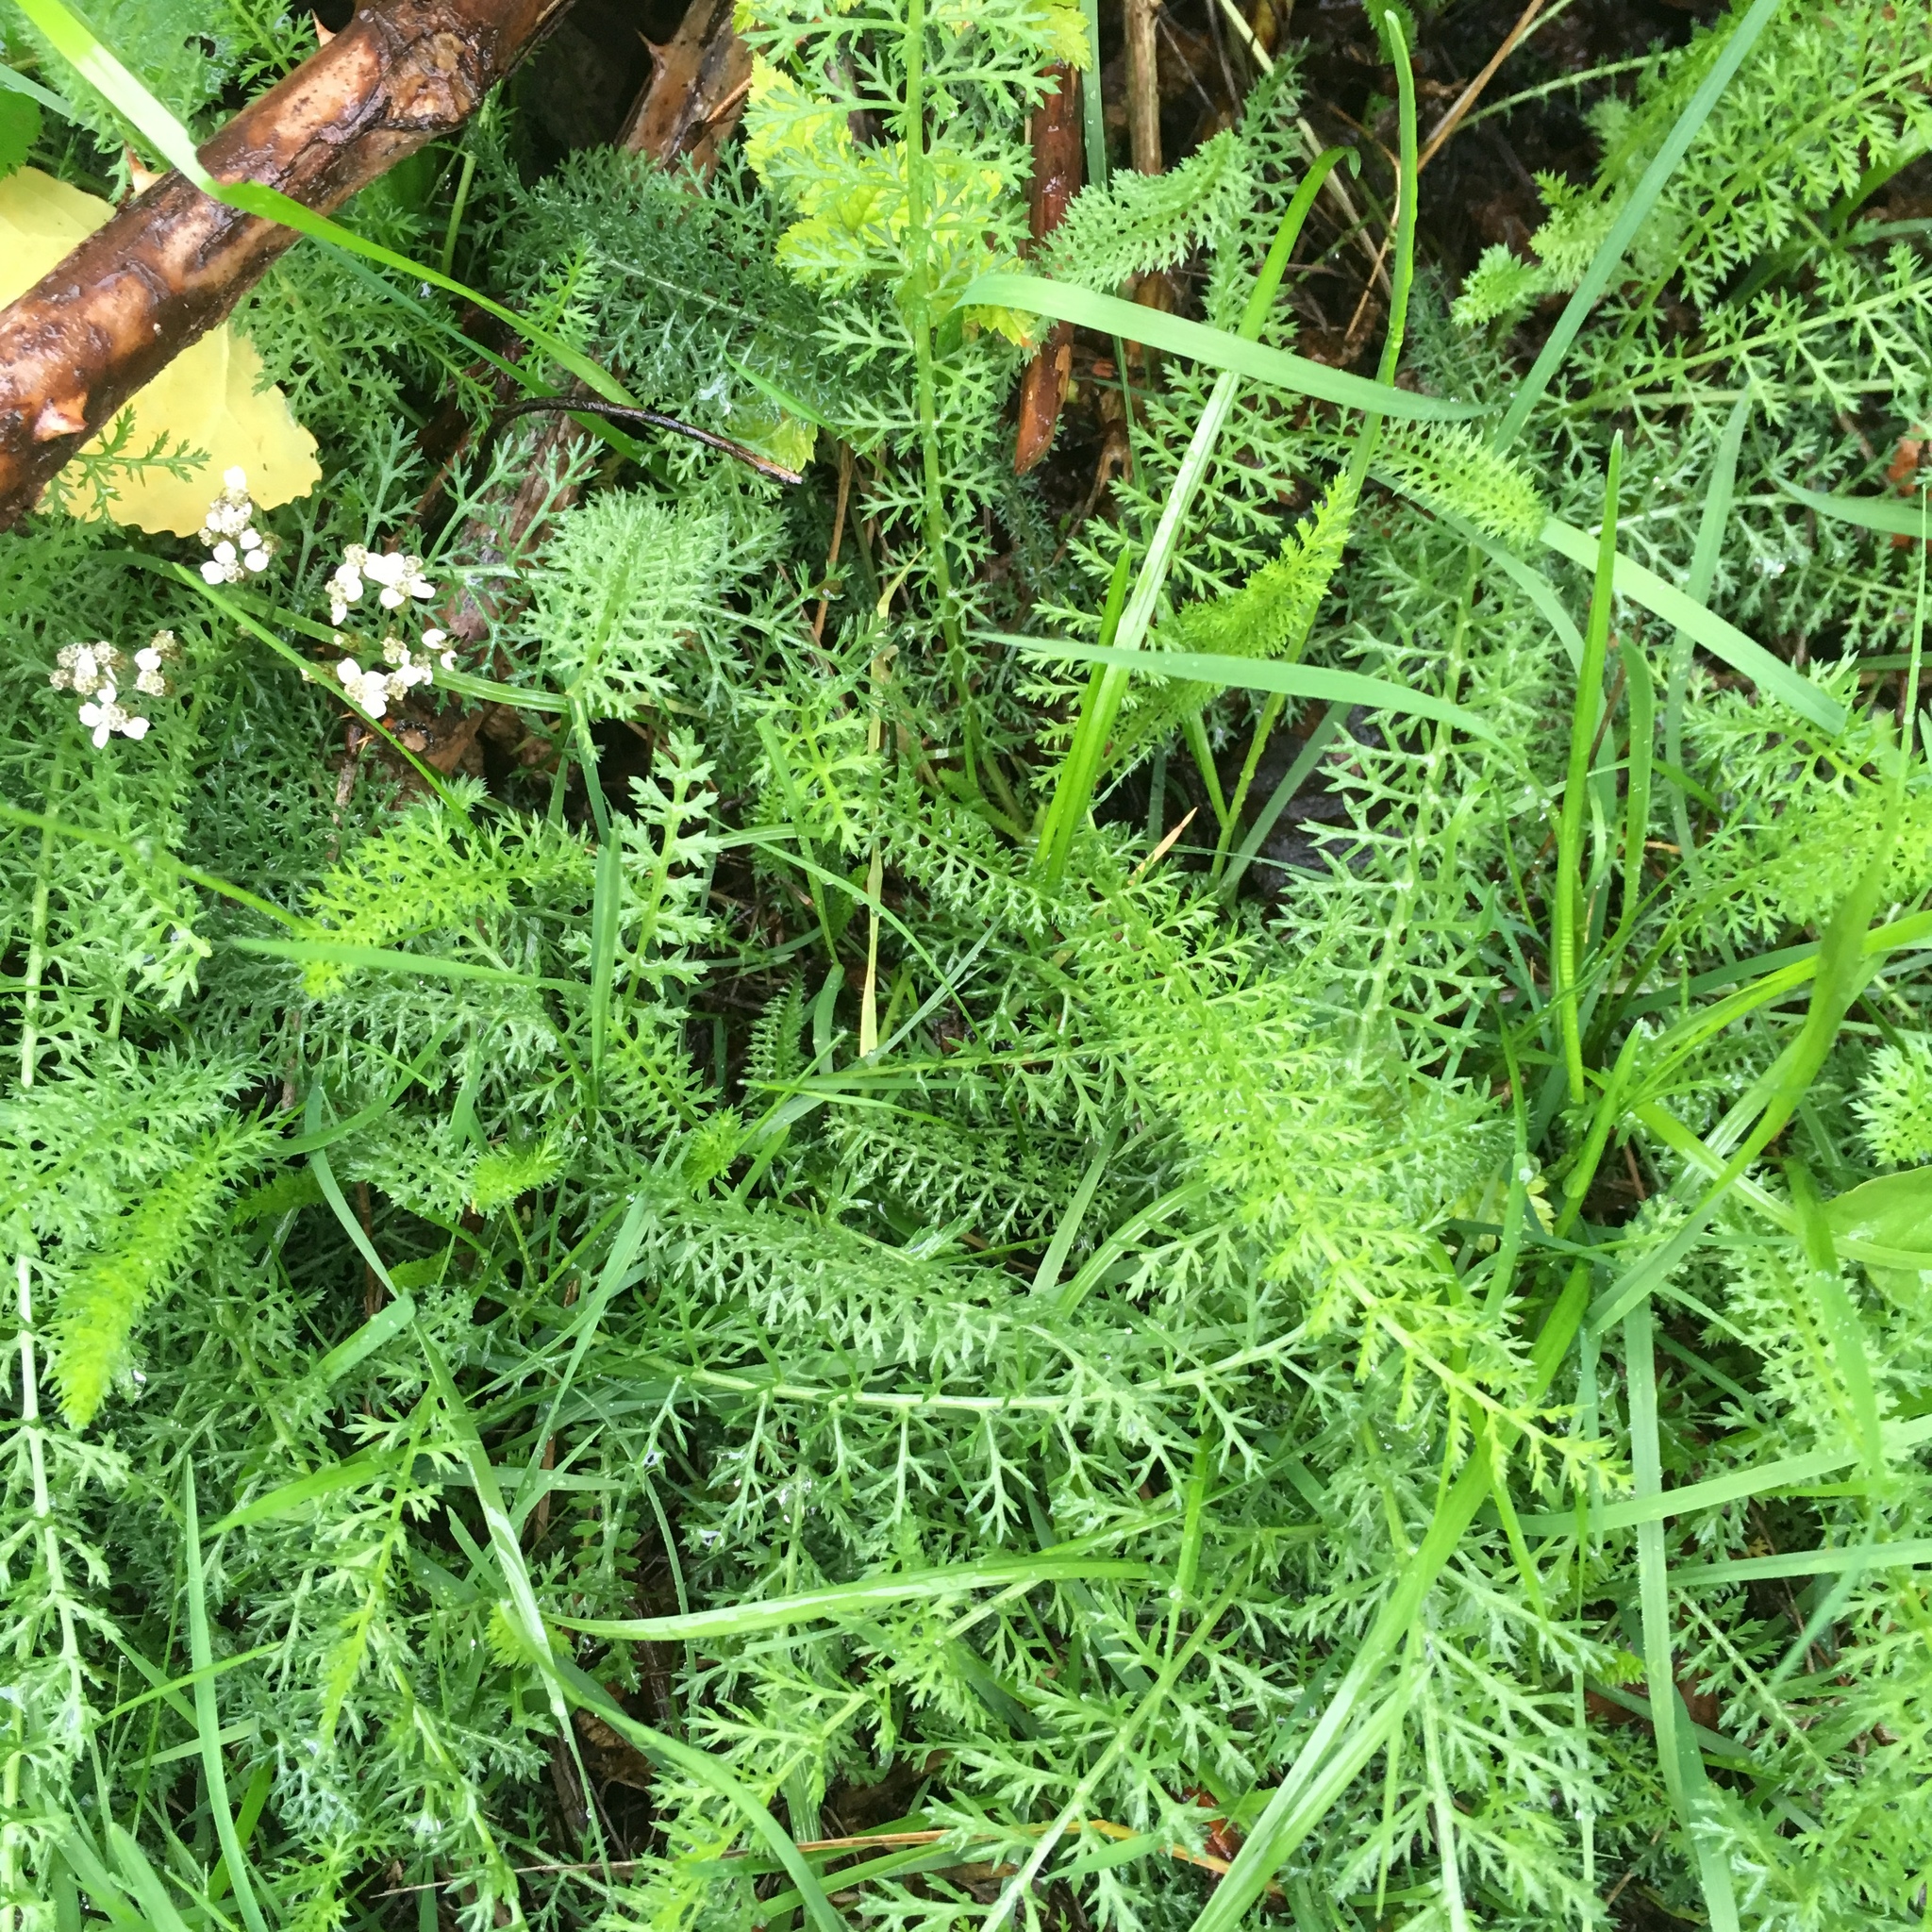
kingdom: Plantae
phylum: Tracheophyta
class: Magnoliopsida
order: Asterales
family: Asteraceae
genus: Achillea
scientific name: Achillea millefolium
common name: Yarrow
